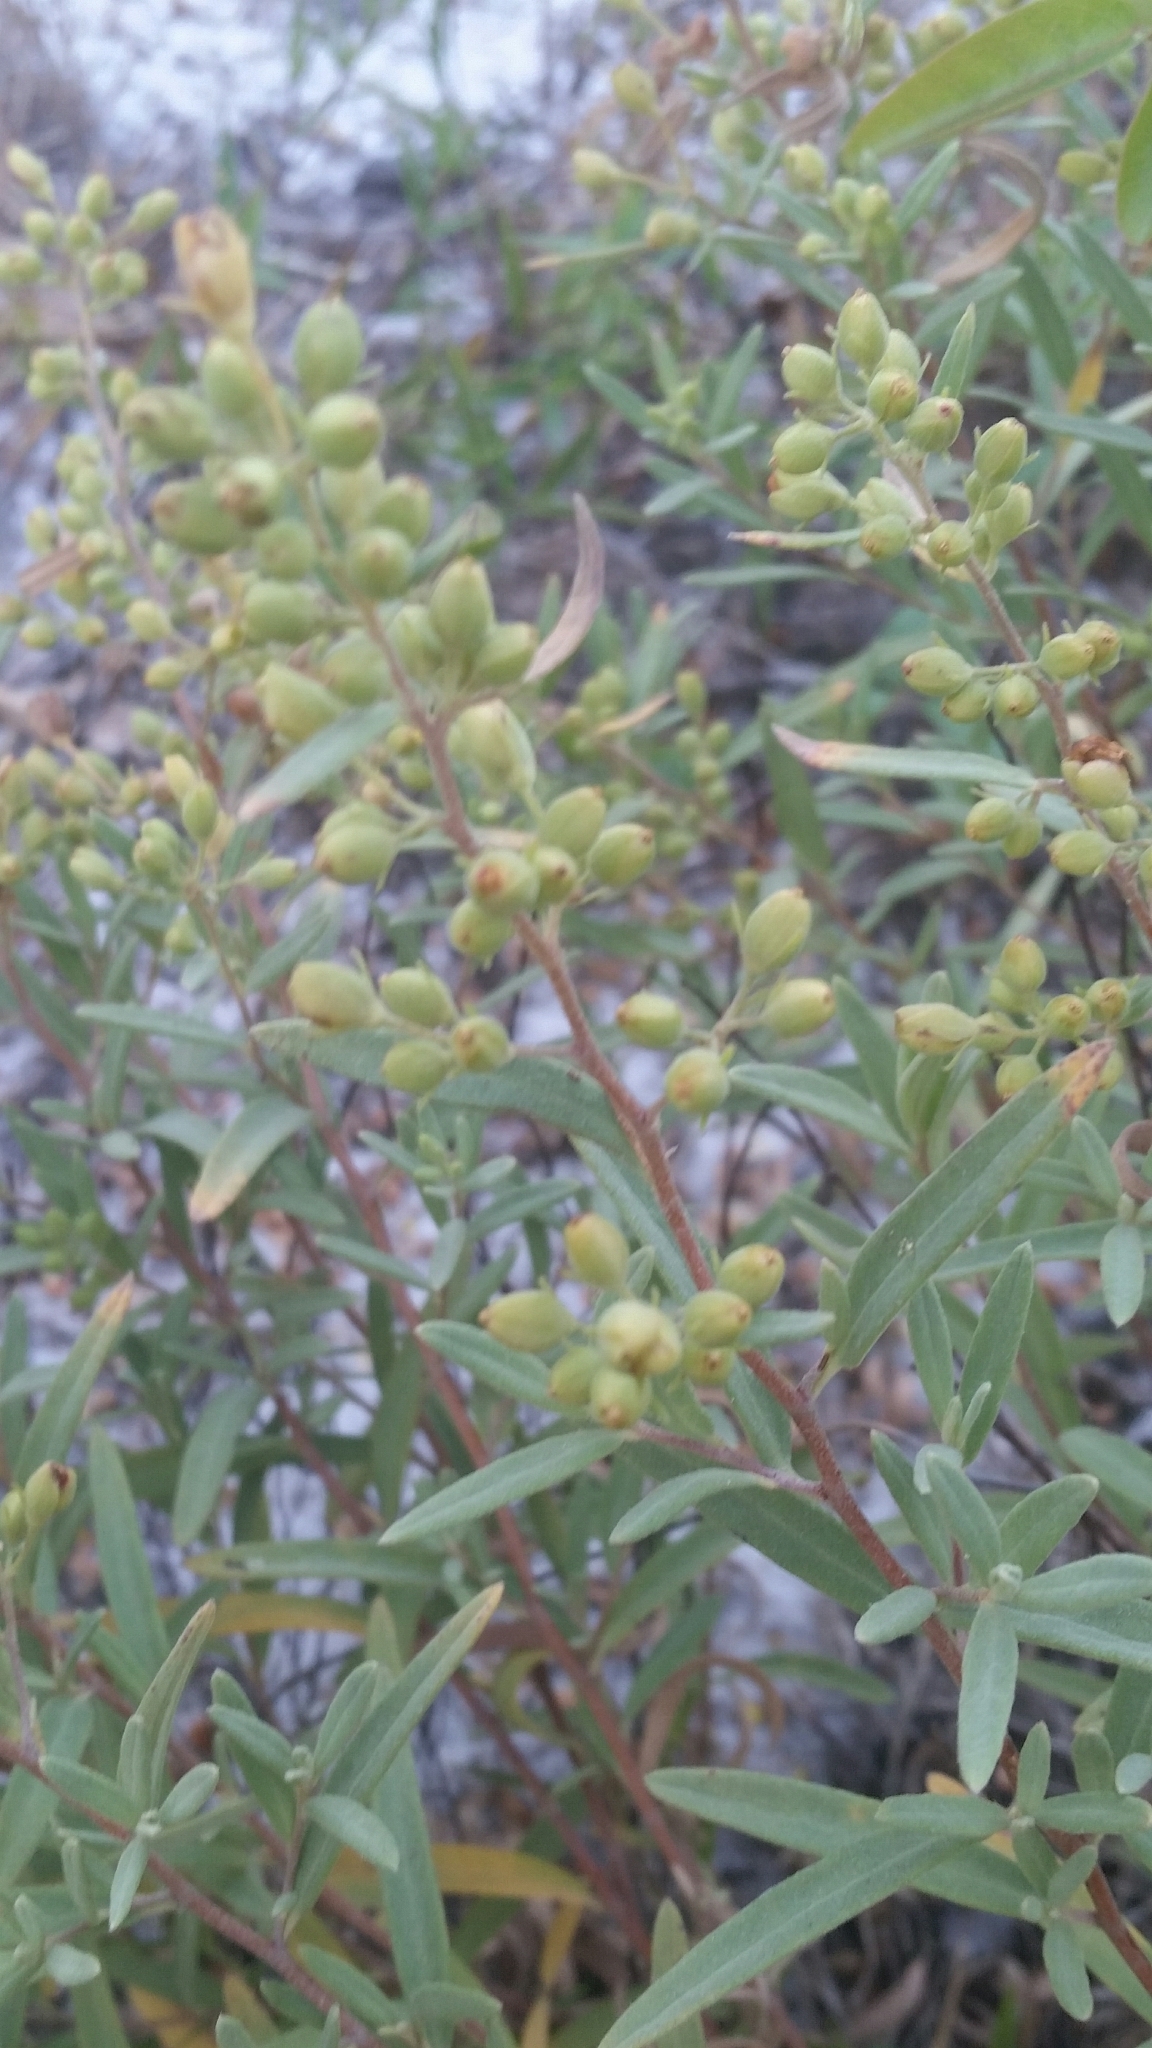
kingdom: Plantae
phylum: Tracheophyta
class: Magnoliopsida
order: Malvales
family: Cistaceae
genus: Crocanthemum
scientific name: Crocanthemum nashii
